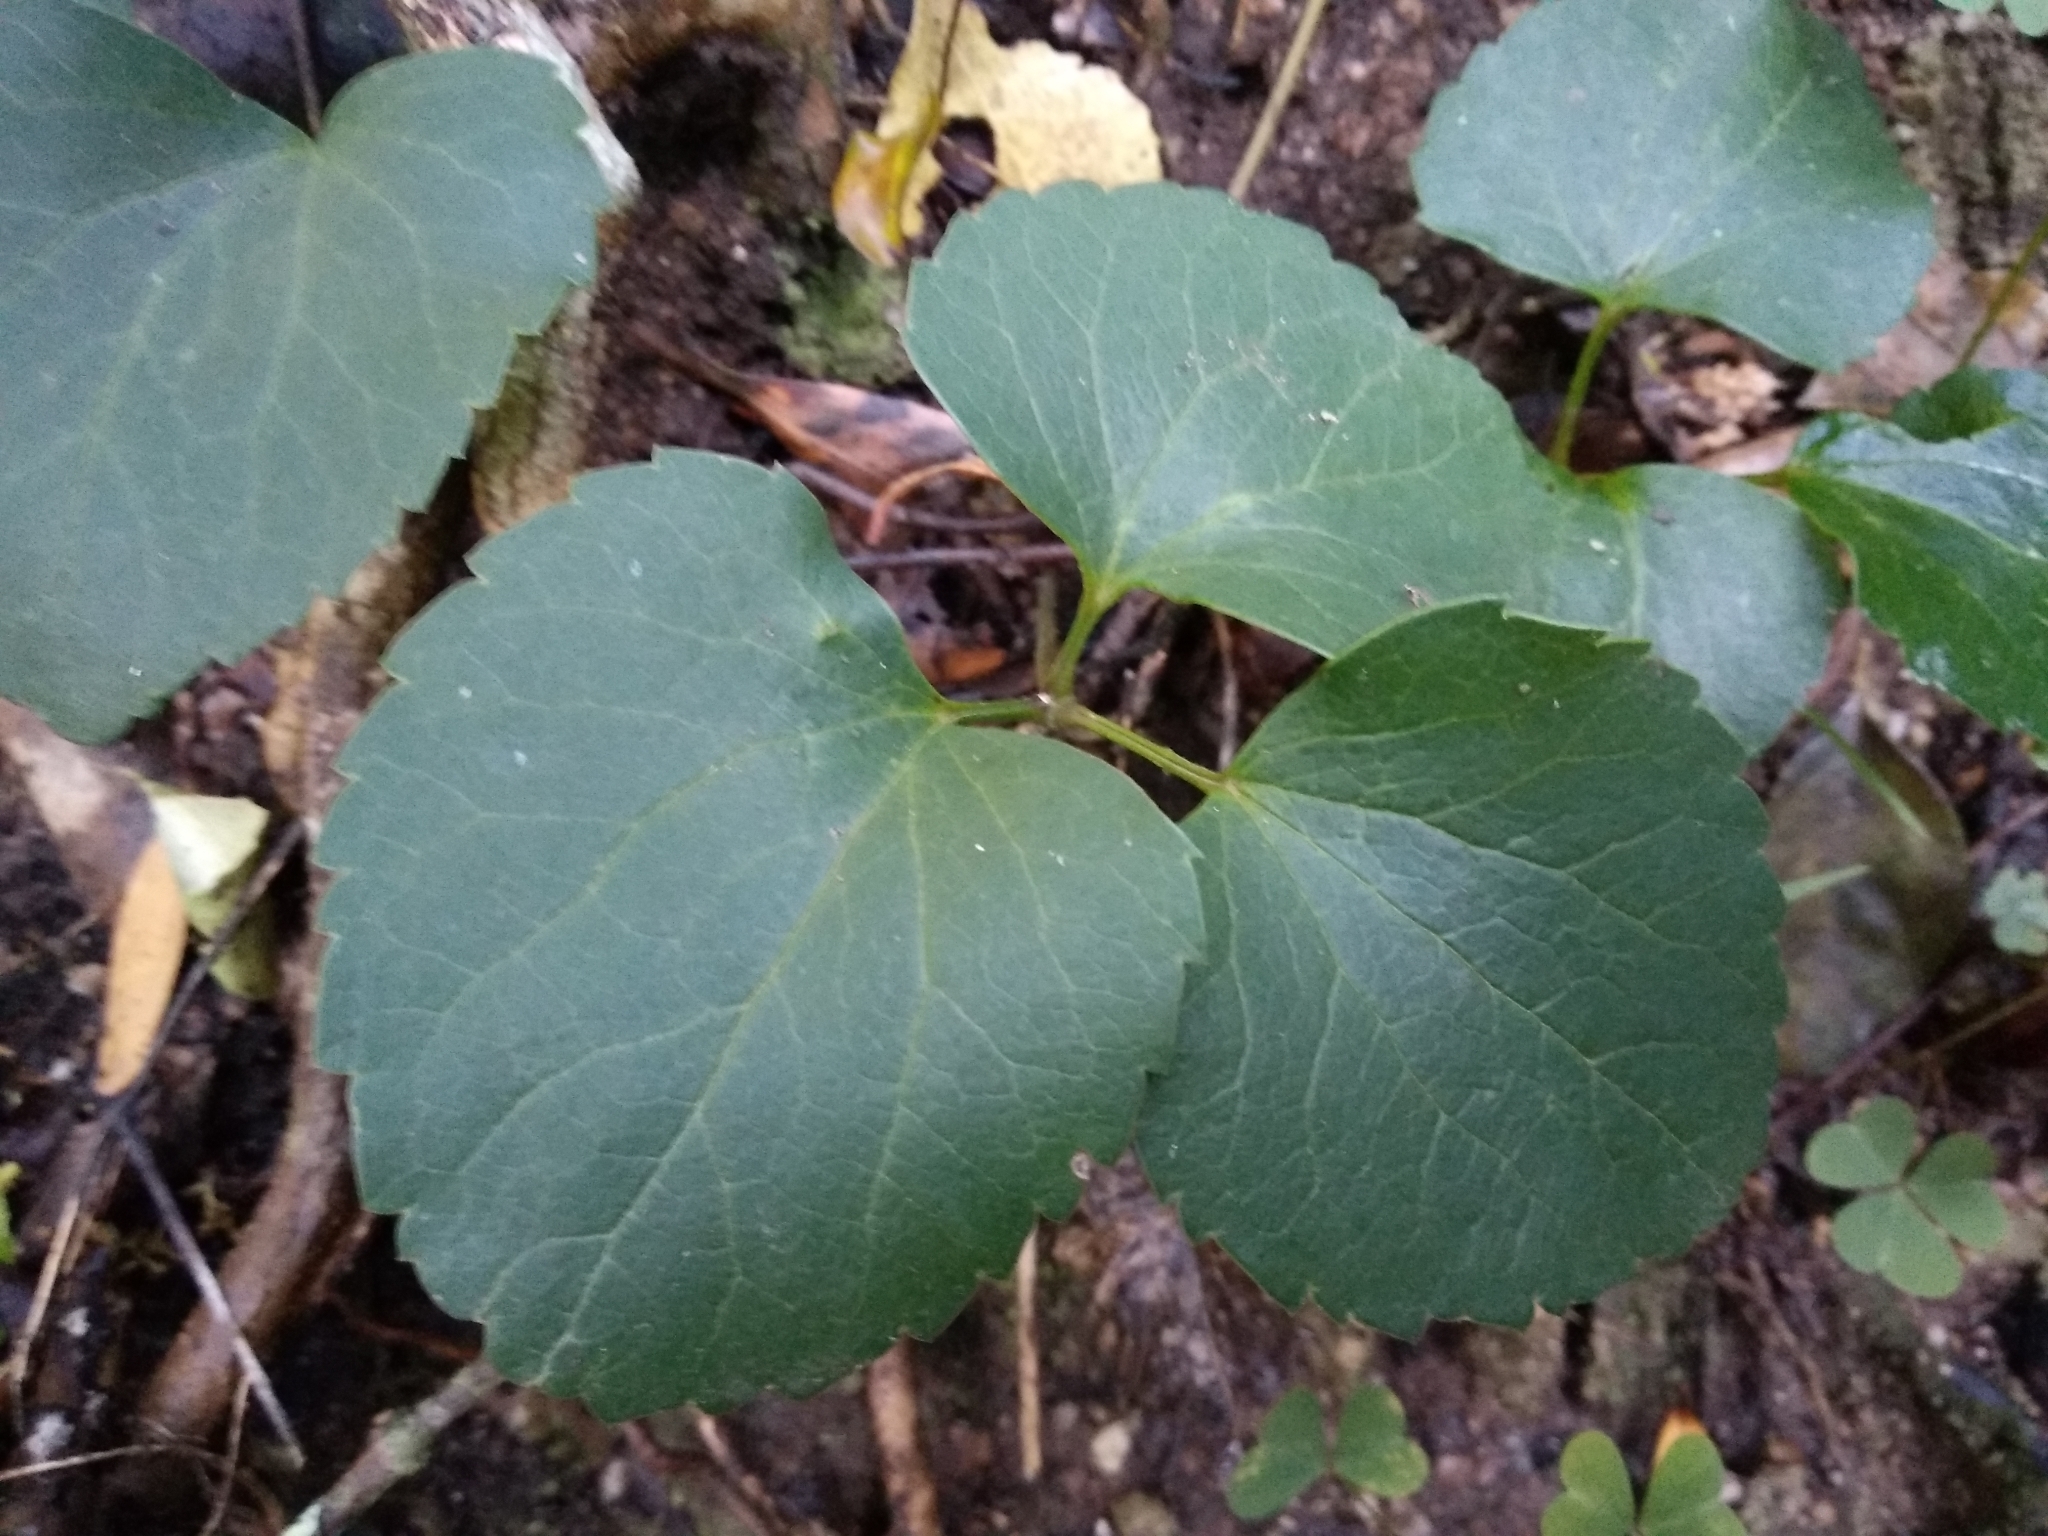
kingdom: Plantae
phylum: Tracheophyta
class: Magnoliopsida
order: Ranunculales
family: Ranunculaceae
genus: Knowltonia
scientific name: Knowltonia vesicatoria
